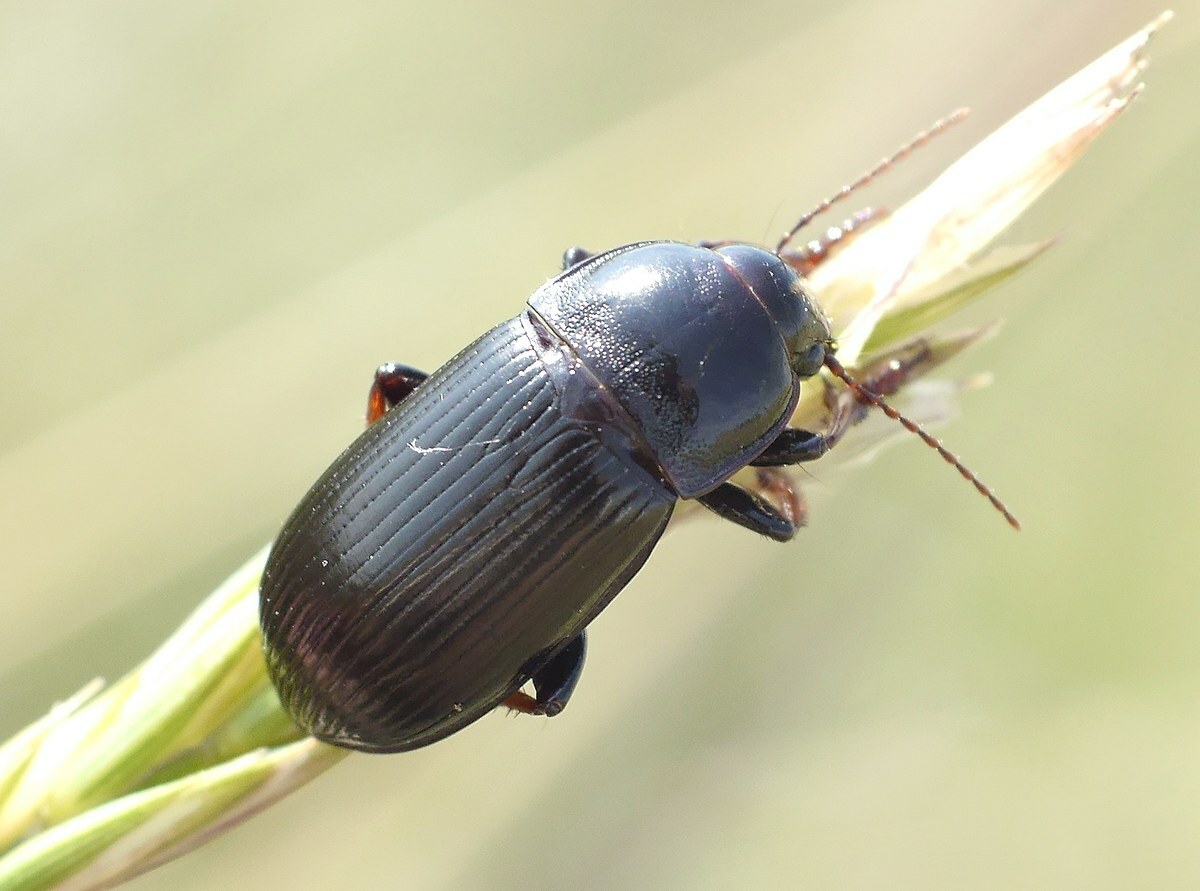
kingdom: Animalia
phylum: Arthropoda
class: Insecta
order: Coleoptera
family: Carabidae
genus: Zabrus
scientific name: Zabrus tenebrioides
